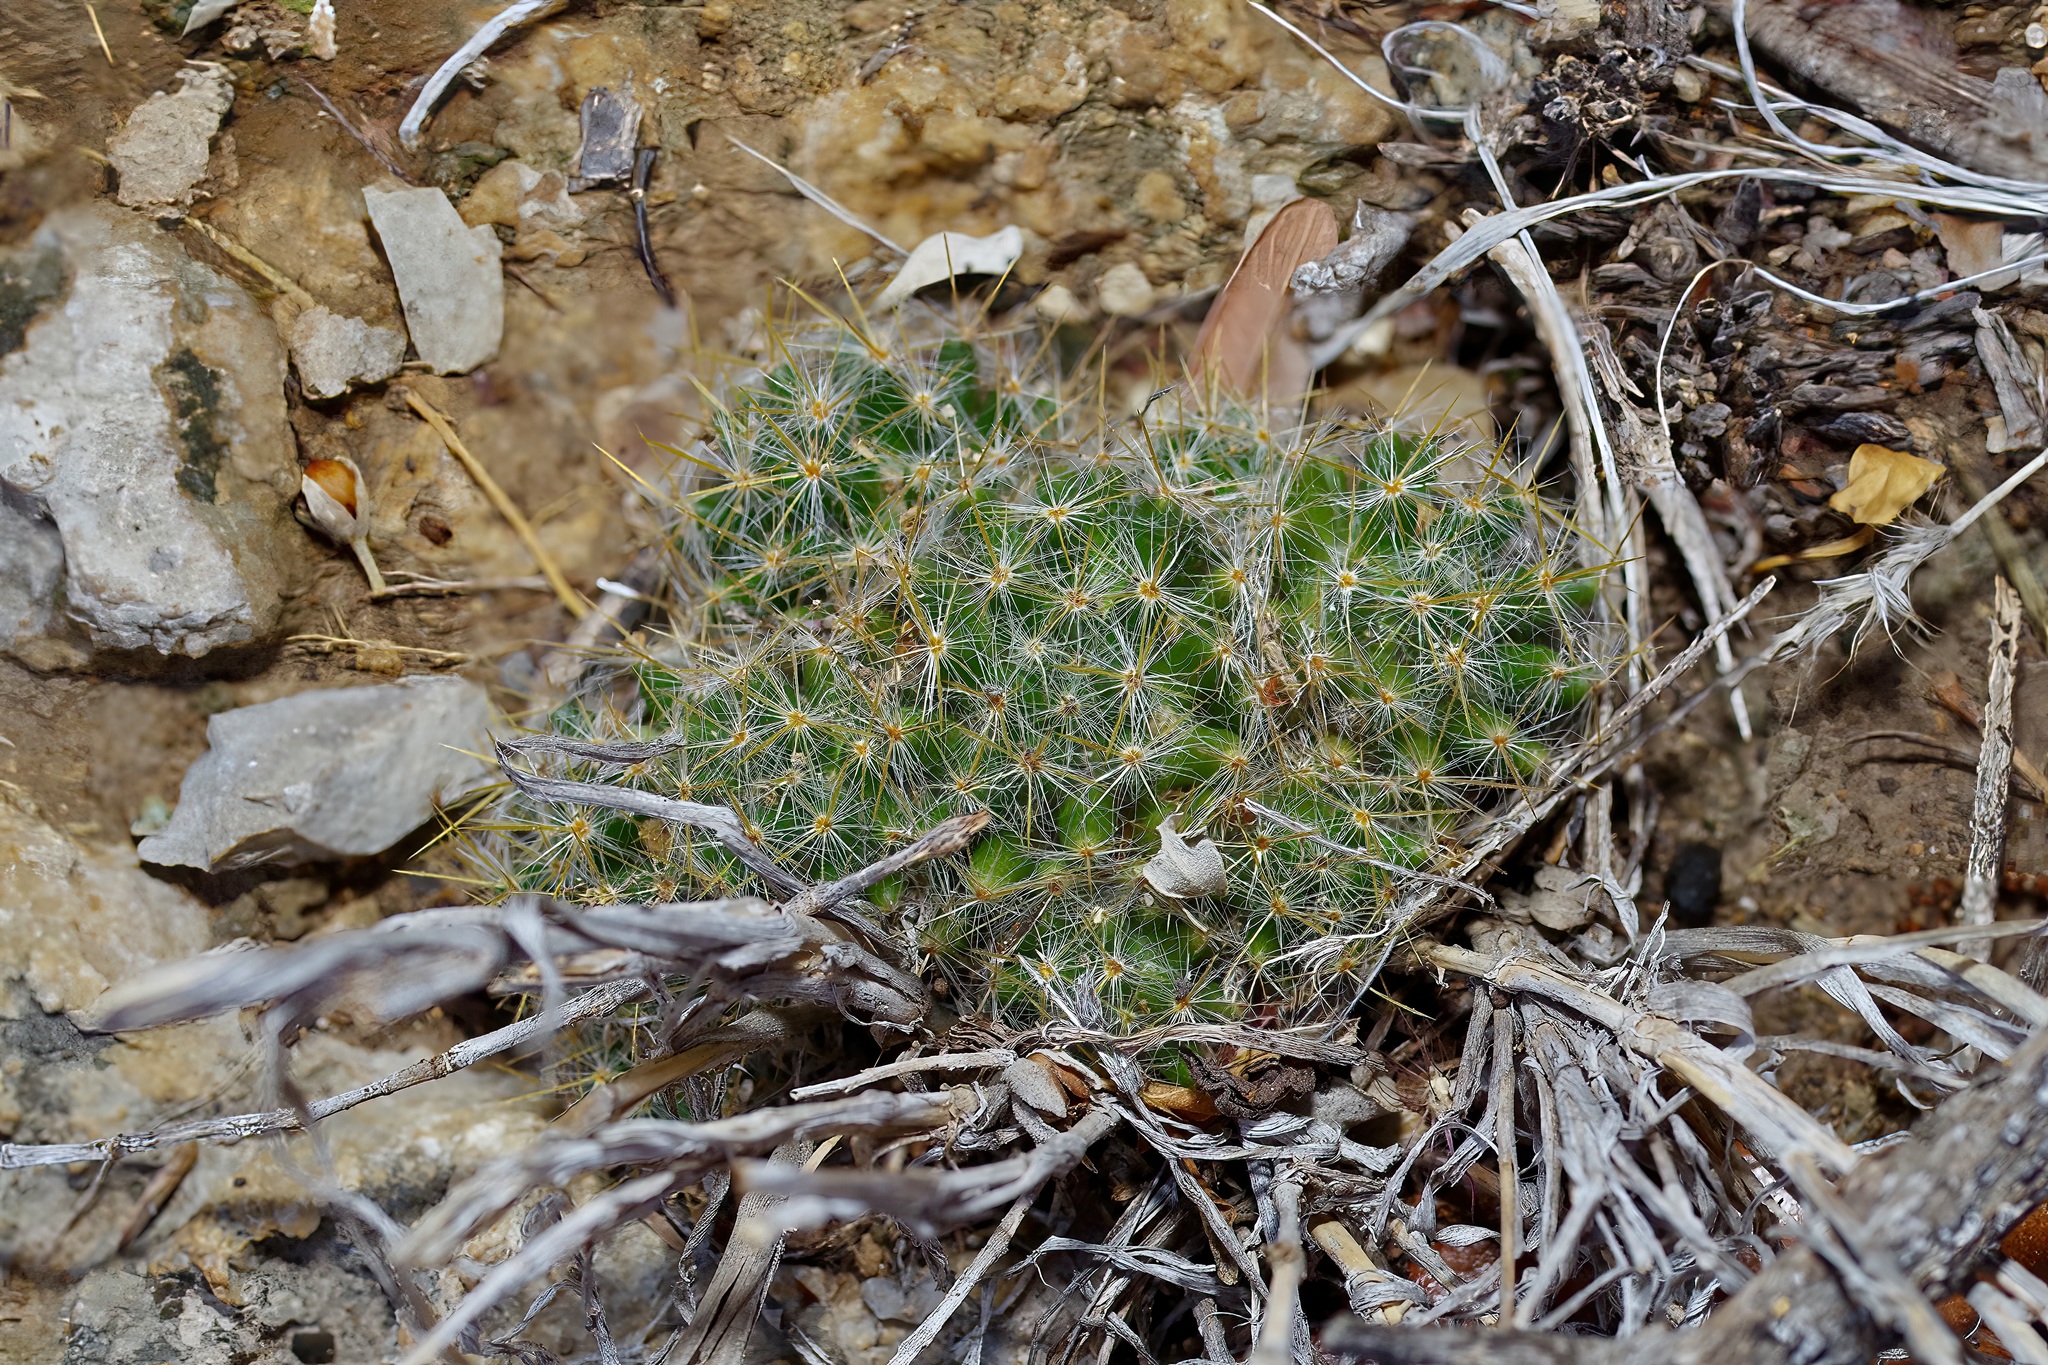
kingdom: Plantae
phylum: Tracheophyta
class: Magnoliopsida
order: Caryophyllales
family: Cactaceae
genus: Mammillaria
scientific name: Mammillaria prolifera
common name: Texas nipple cactus
